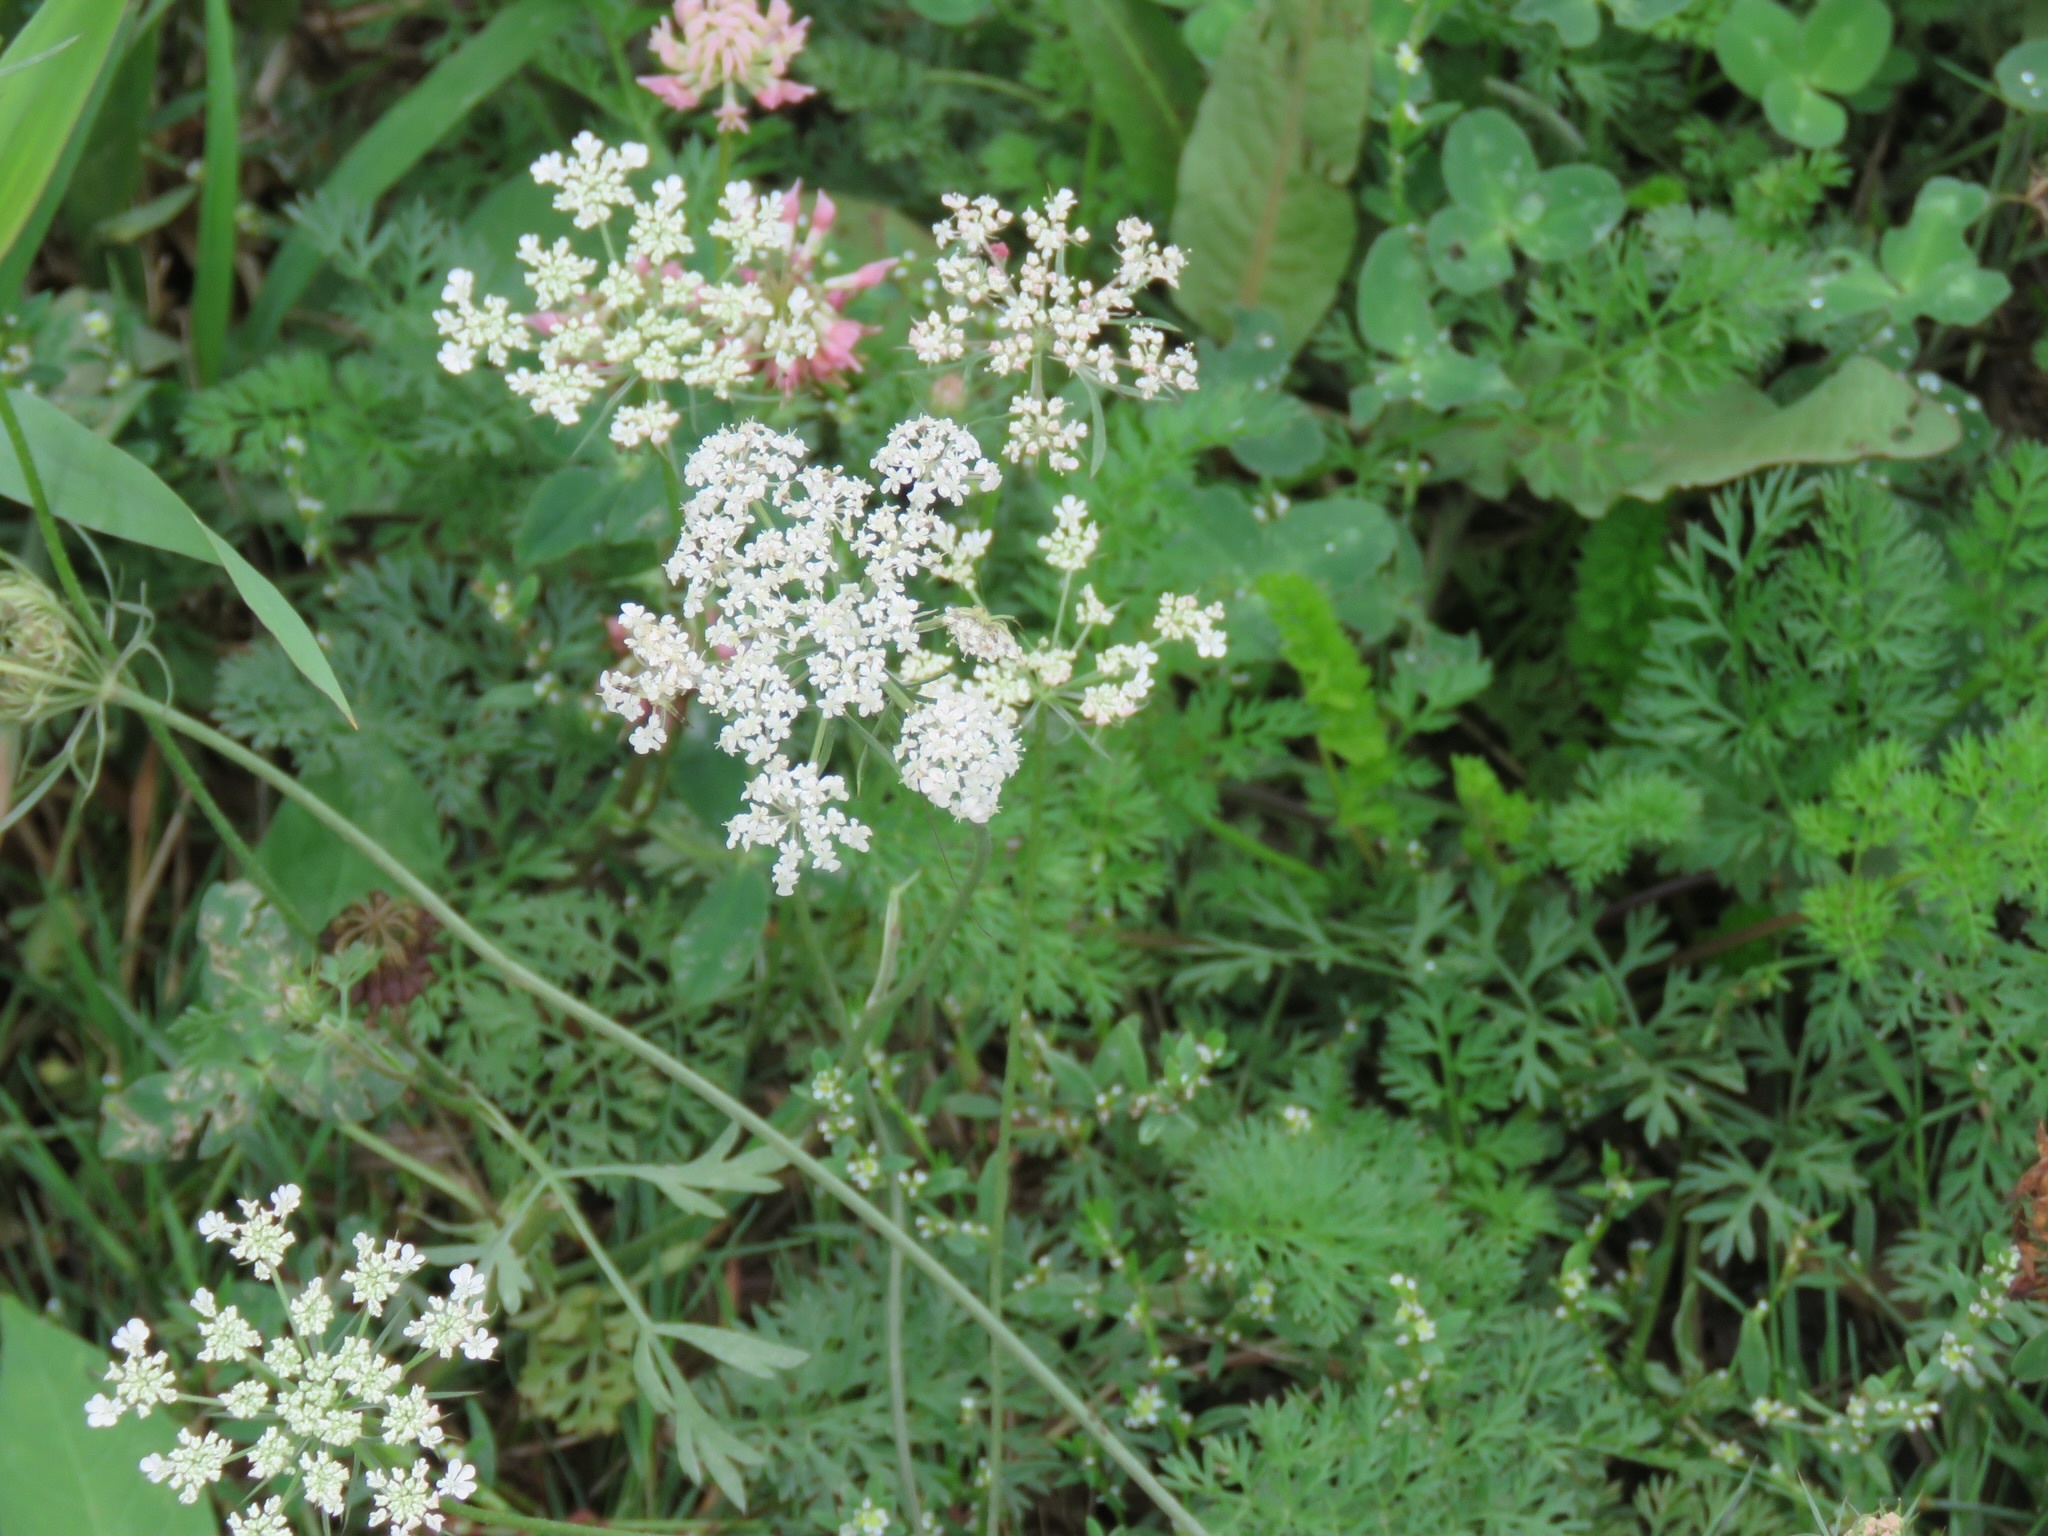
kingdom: Plantae
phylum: Tracheophyta
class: Magnoliopsida
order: Apiales
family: Apiaceae
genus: Daucus
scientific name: Daucus carota
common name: Wild carrot
